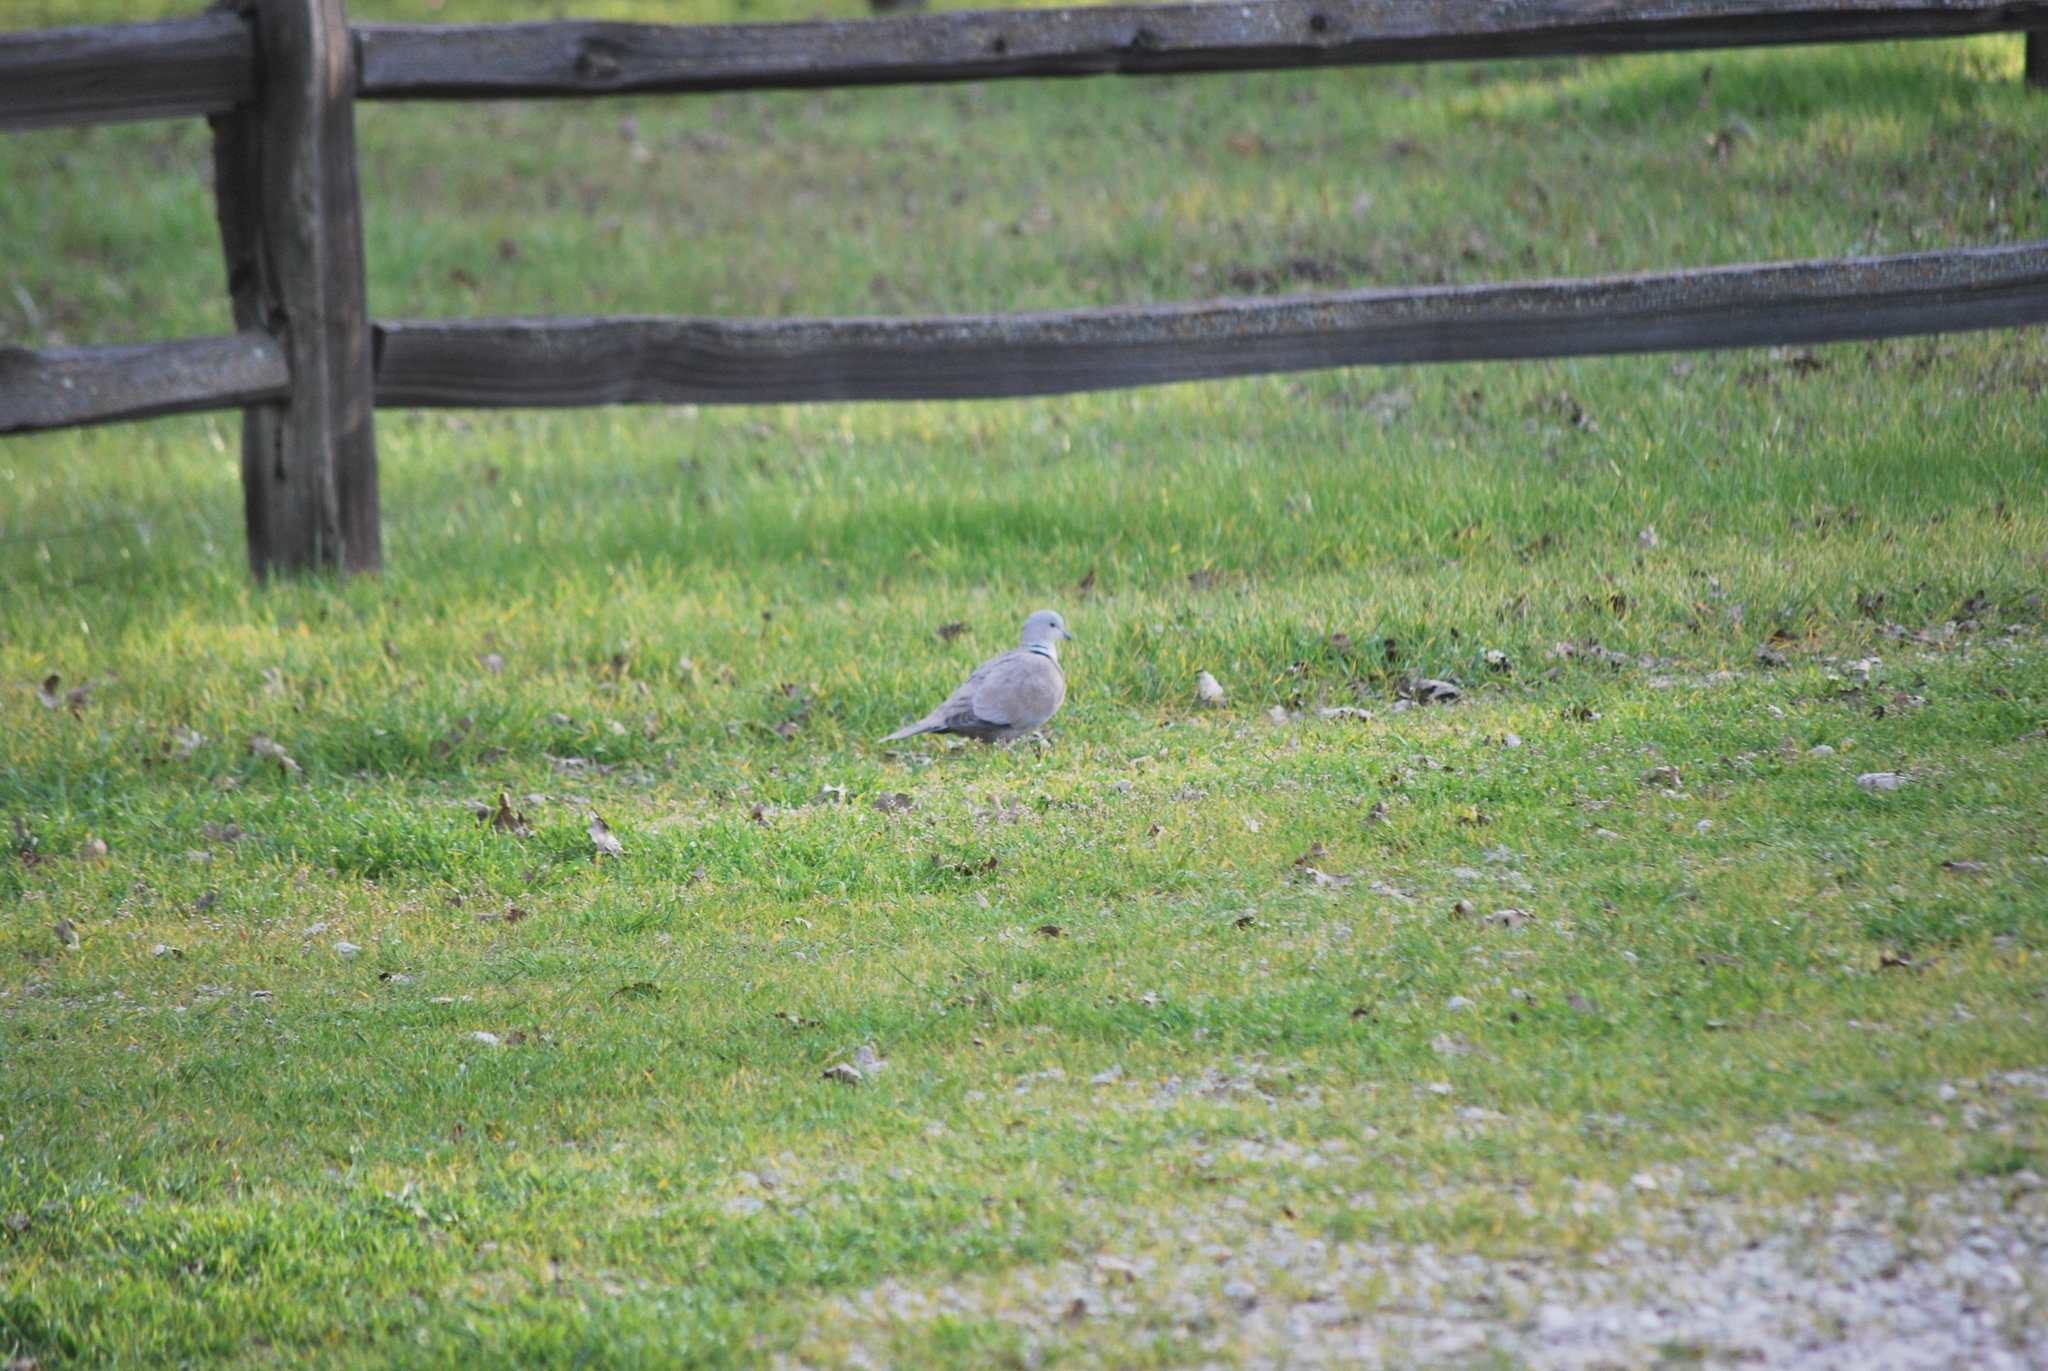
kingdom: Animalia
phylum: Chordata
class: Aves
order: Columbiformes
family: Columbidae
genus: Streptopelia
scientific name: Streptopelia decaocto
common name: Eurasian collared dove
